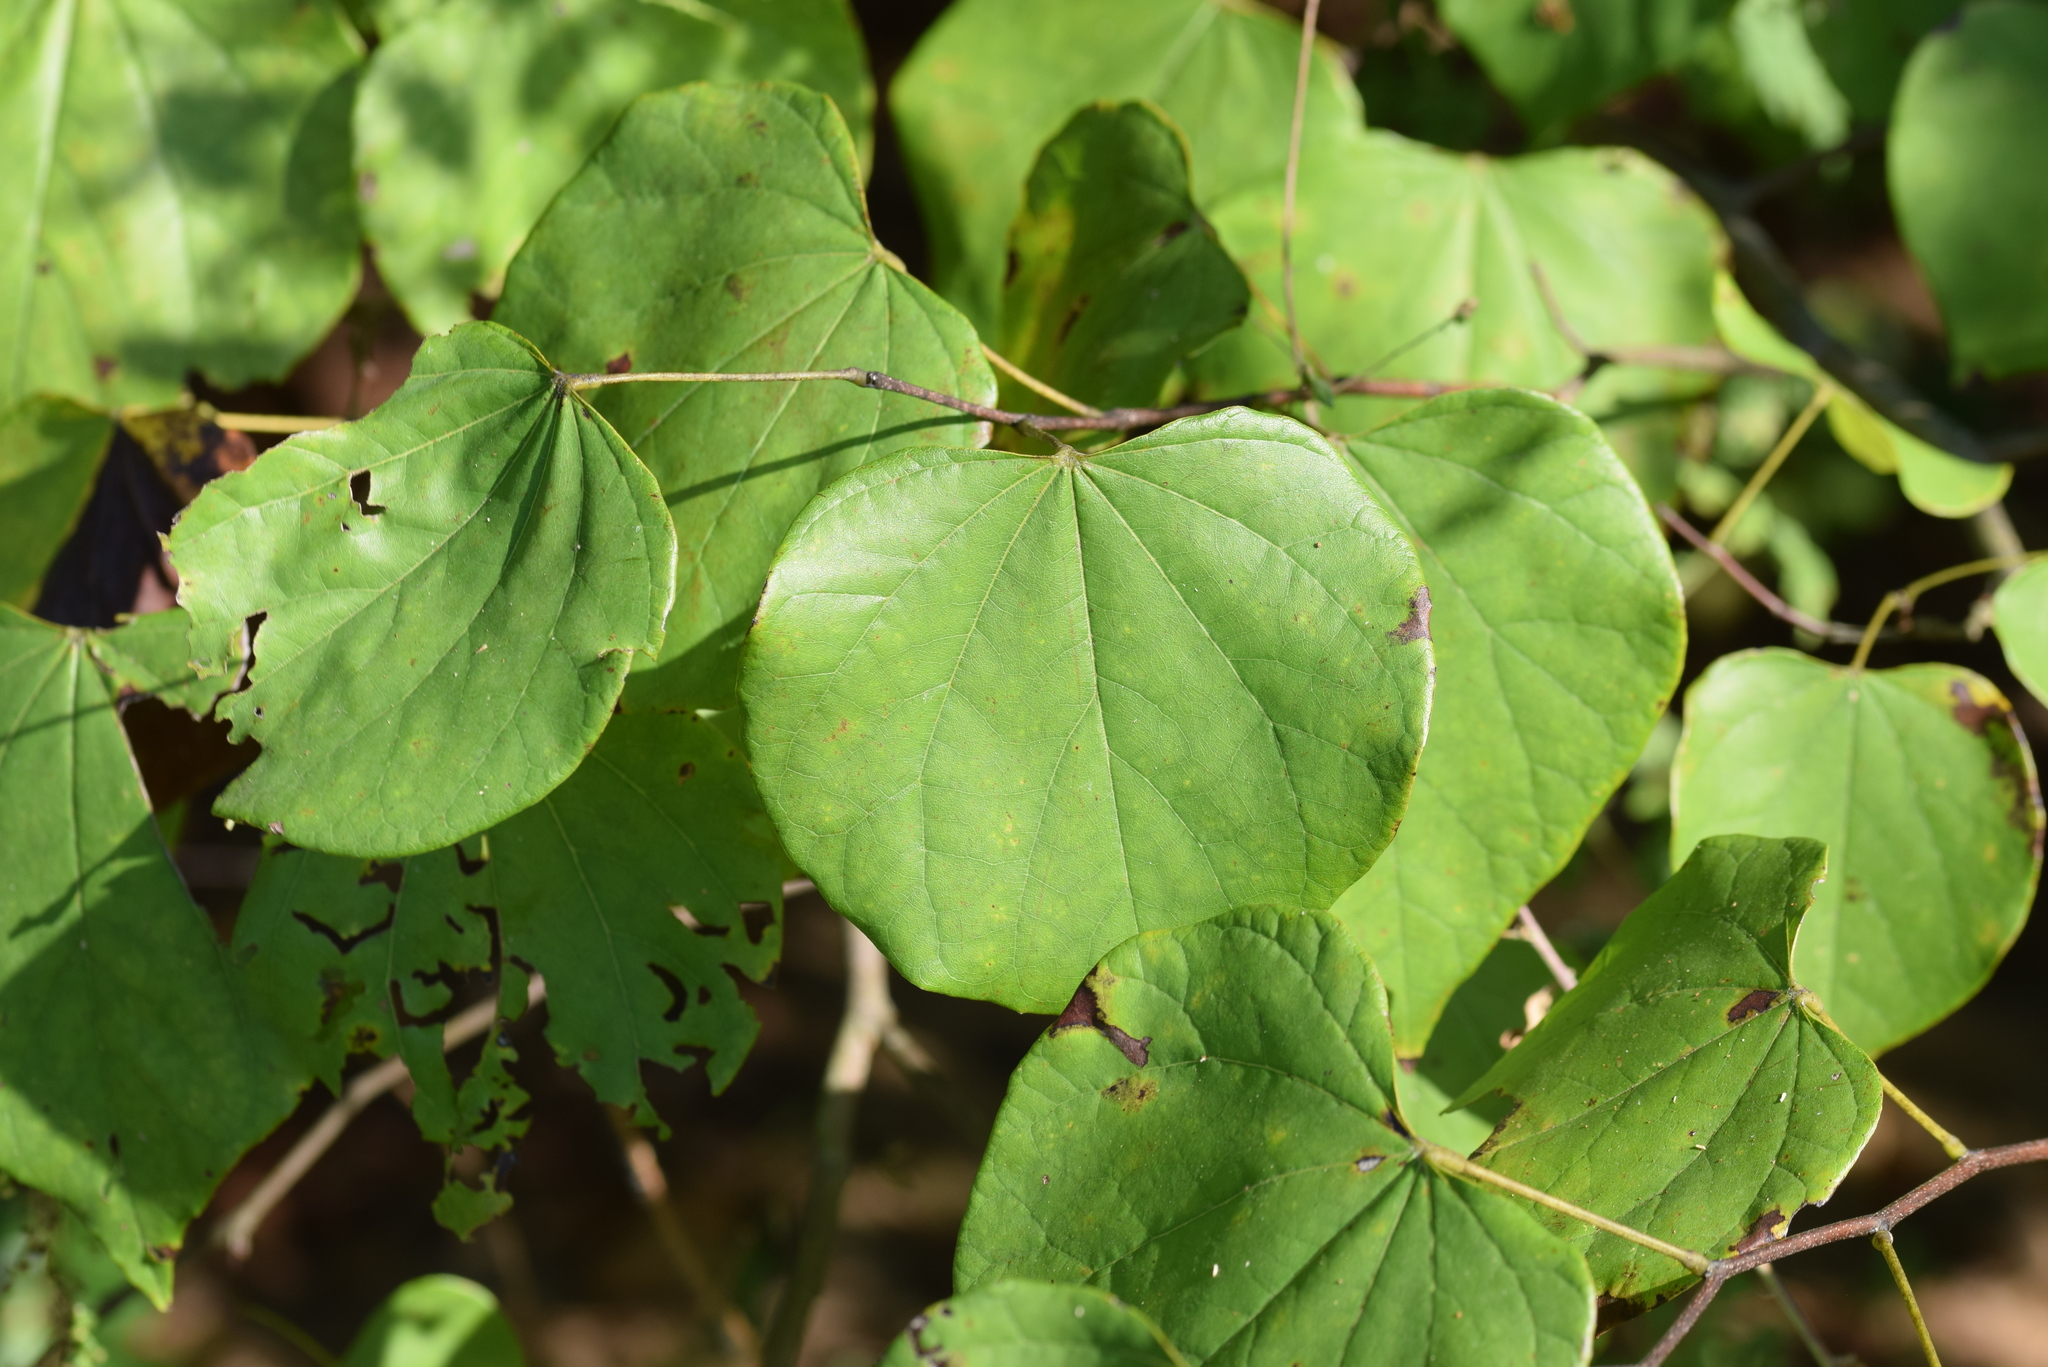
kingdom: Plantae
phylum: Tracheophyta
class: Magnoliopsida
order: Fabales
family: Fabaceae
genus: Cercis
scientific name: Cercis canadensis
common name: Eastern redbud
